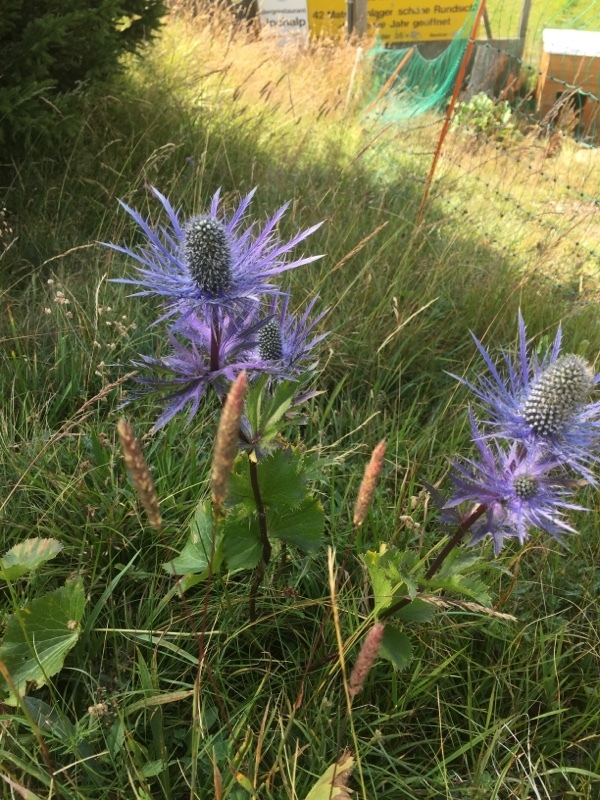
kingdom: Plantae
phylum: Tracheophyta
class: Magnoliopsida
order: Apiales
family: Apiaceae
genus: Eryngium
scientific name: Eryngium alpinum
